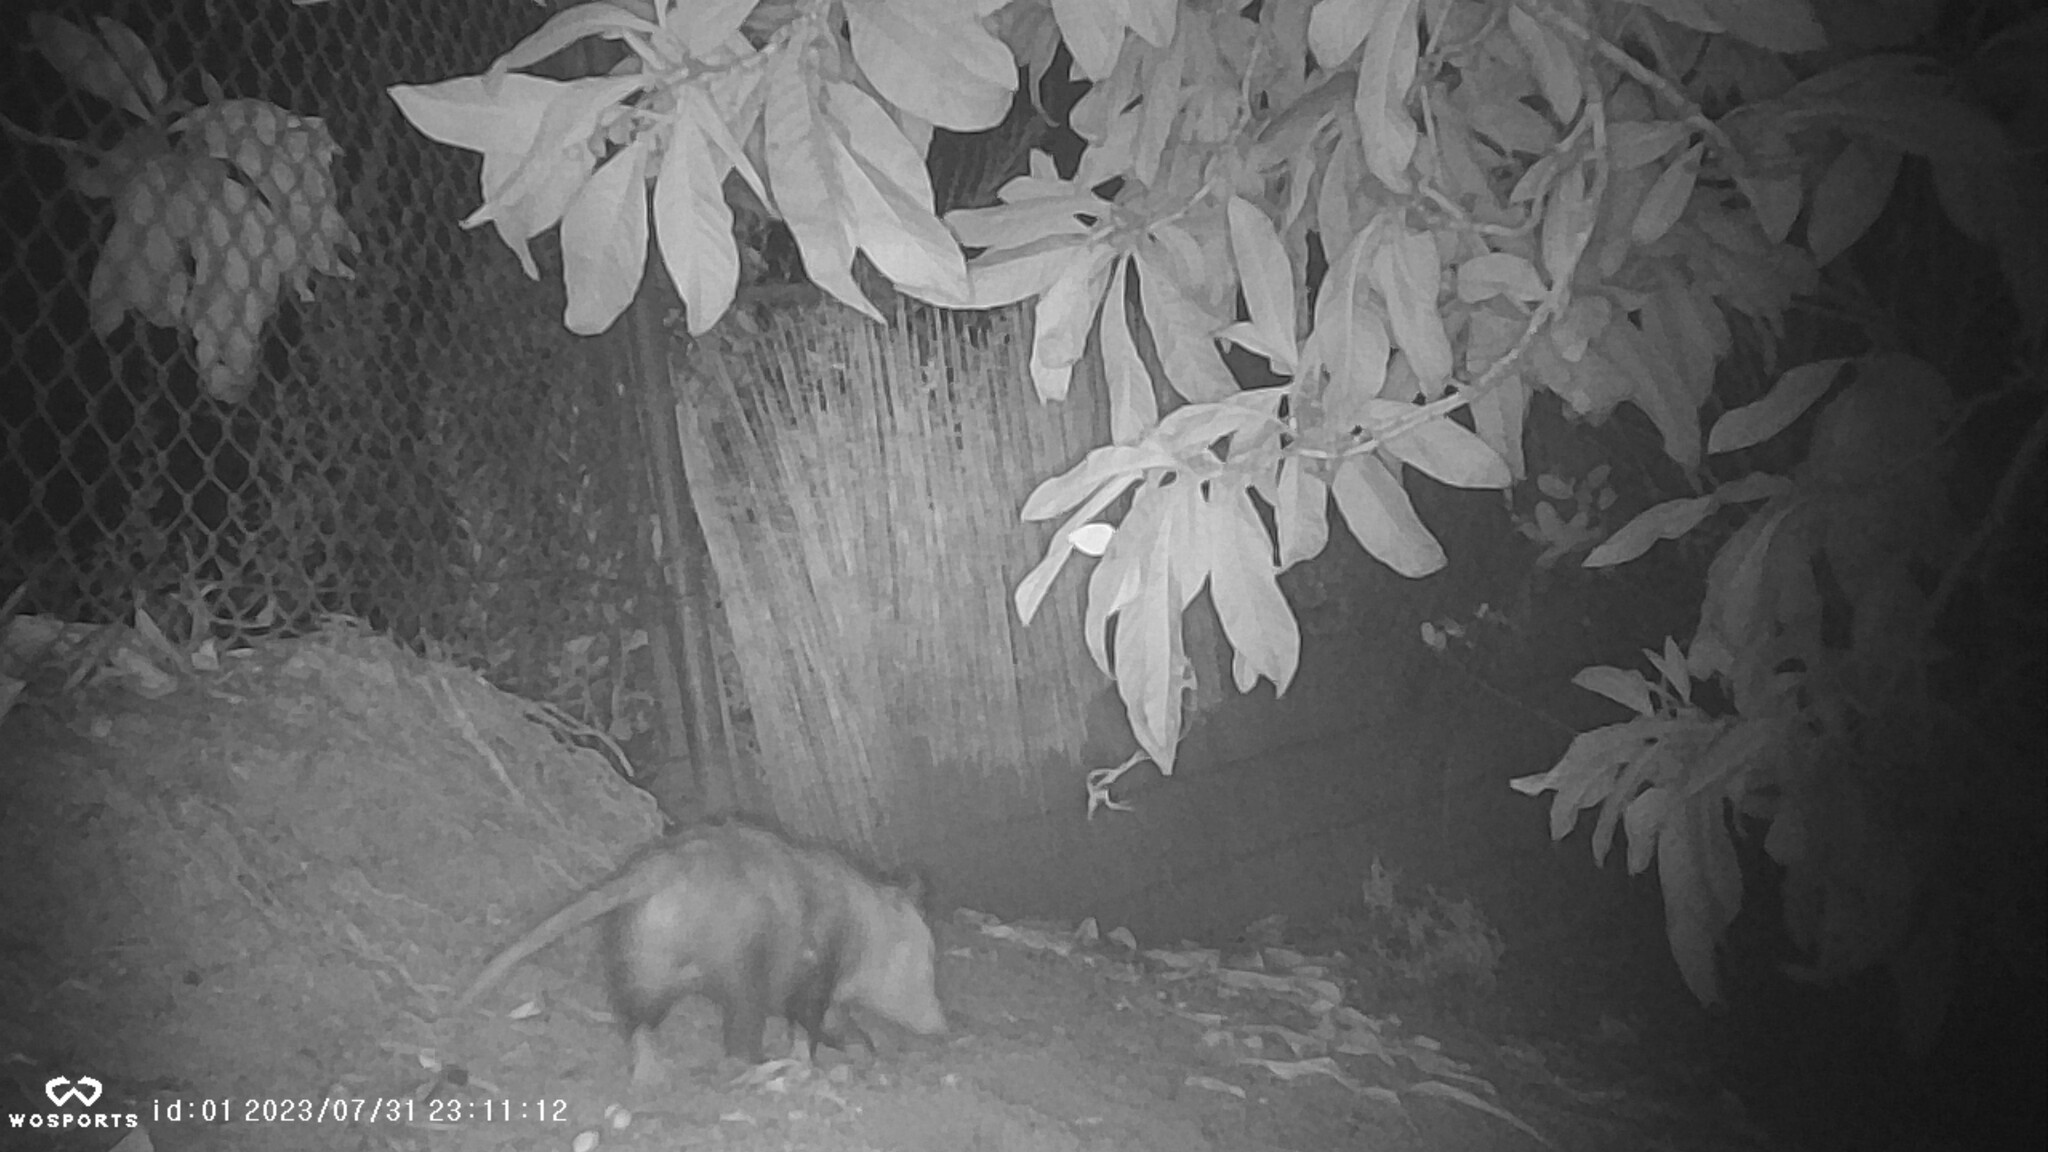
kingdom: Animalia
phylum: Chordata
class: Mammalia
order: Didelphimorphia
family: Didelphidae
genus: Didelphis
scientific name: Didelphis virginiana
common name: Virginia opossum
